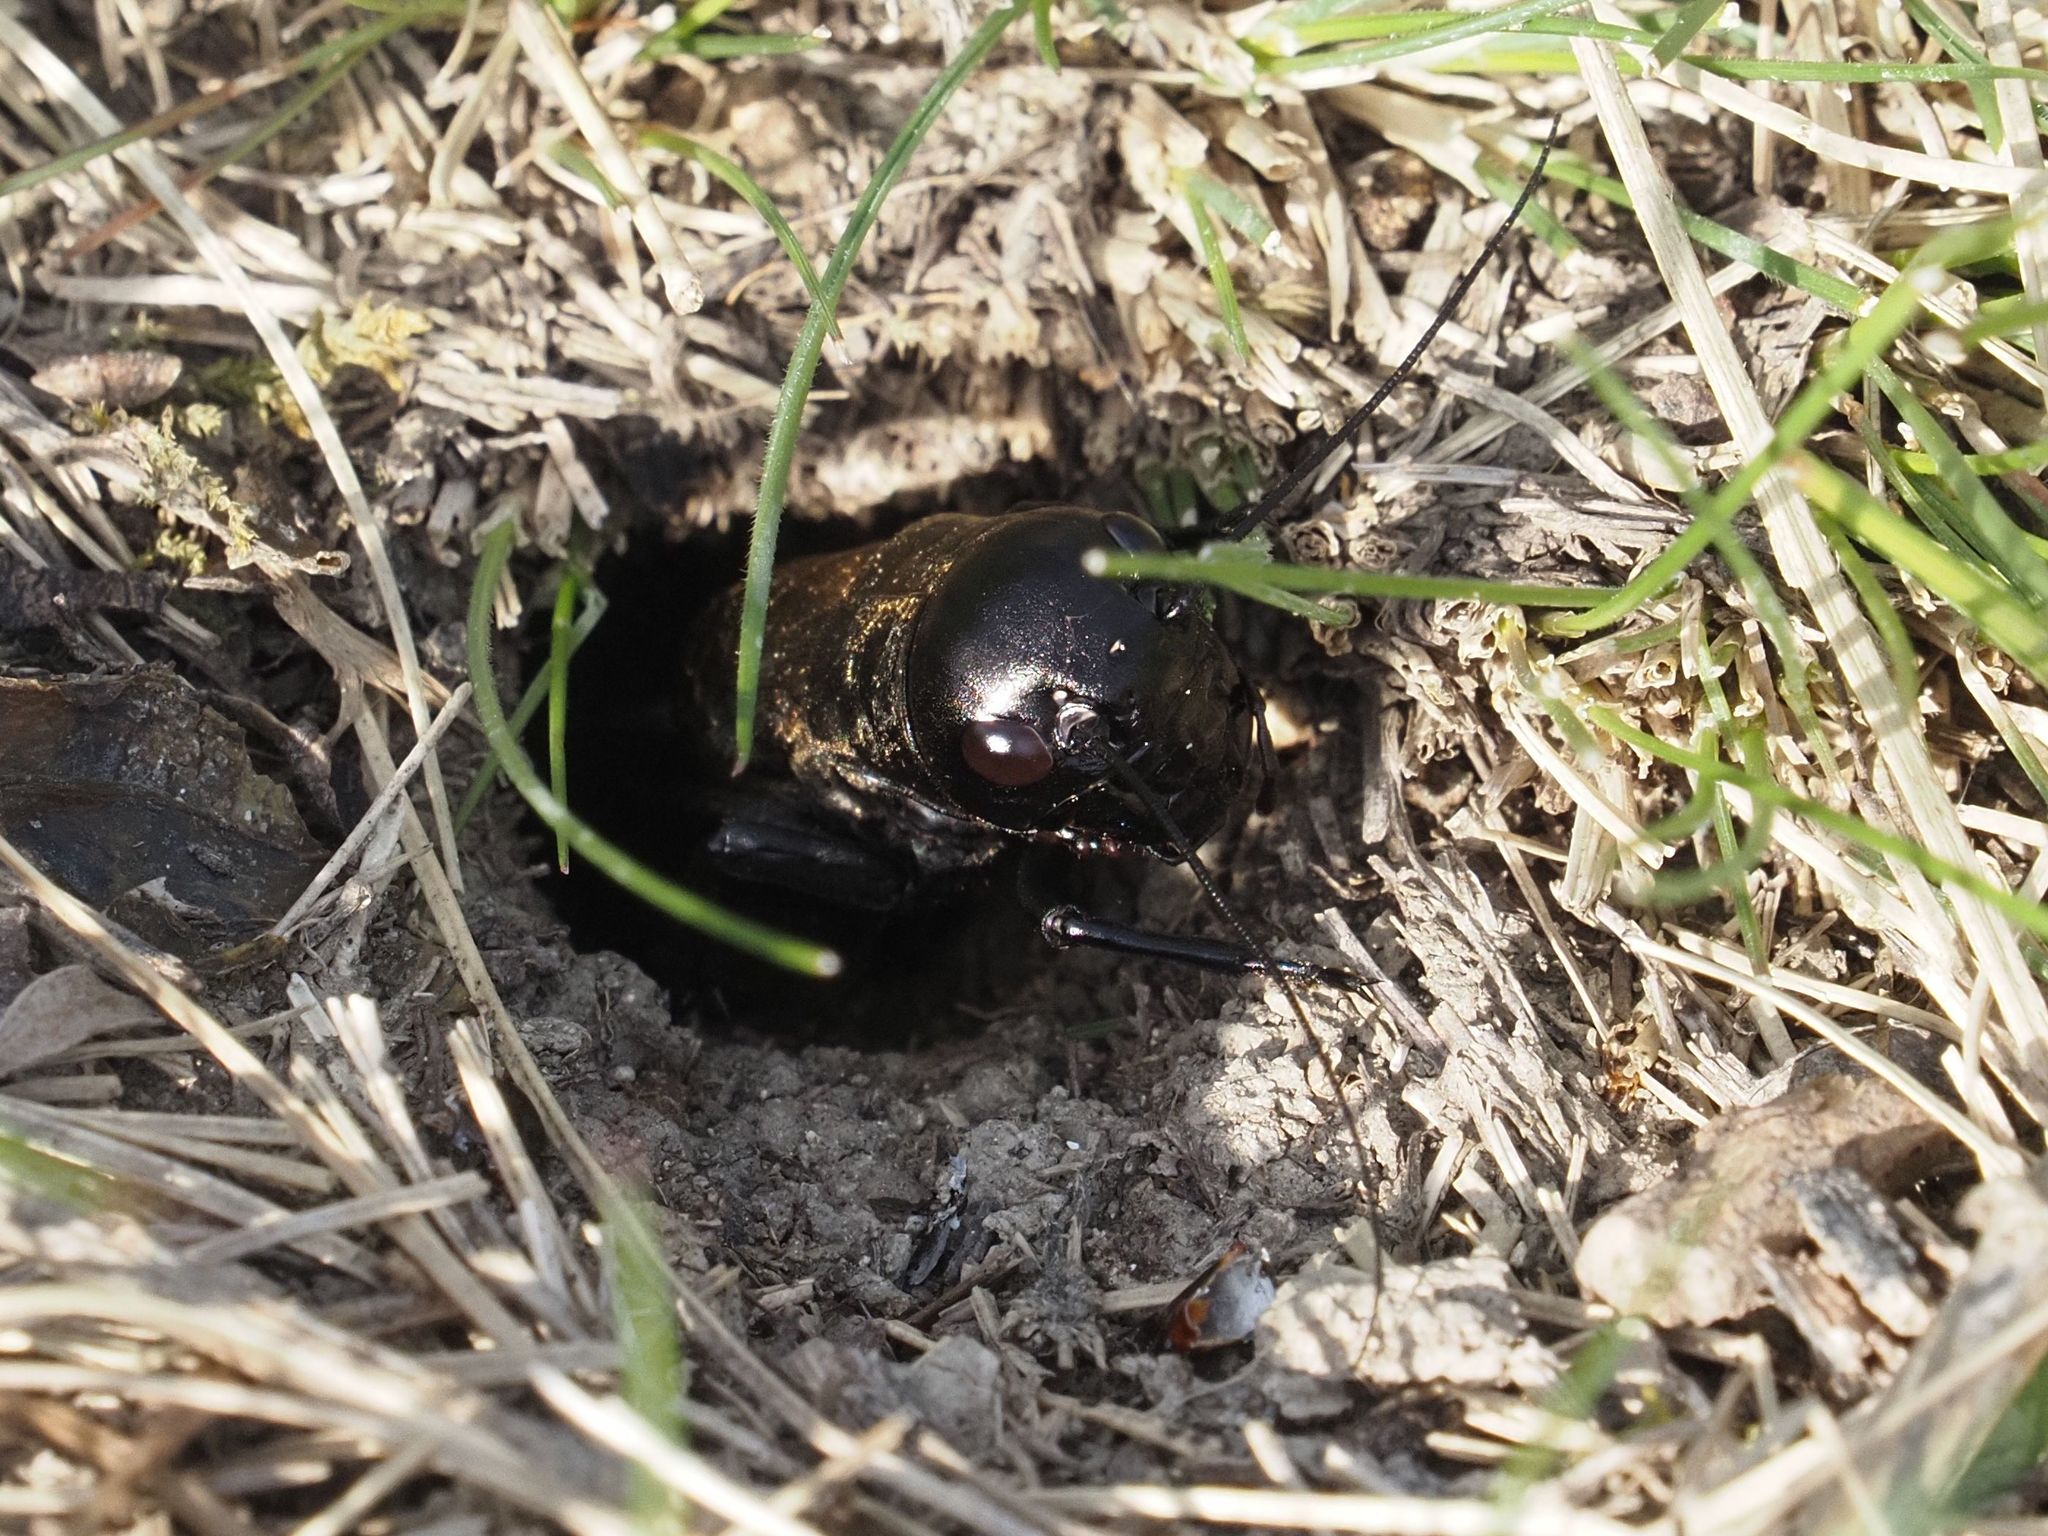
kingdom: Animalia
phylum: Arthropoda
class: Insecta
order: Orthoptera
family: Gryllidae
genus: Gryllus
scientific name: Gryllus campestris
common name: Field cricket
